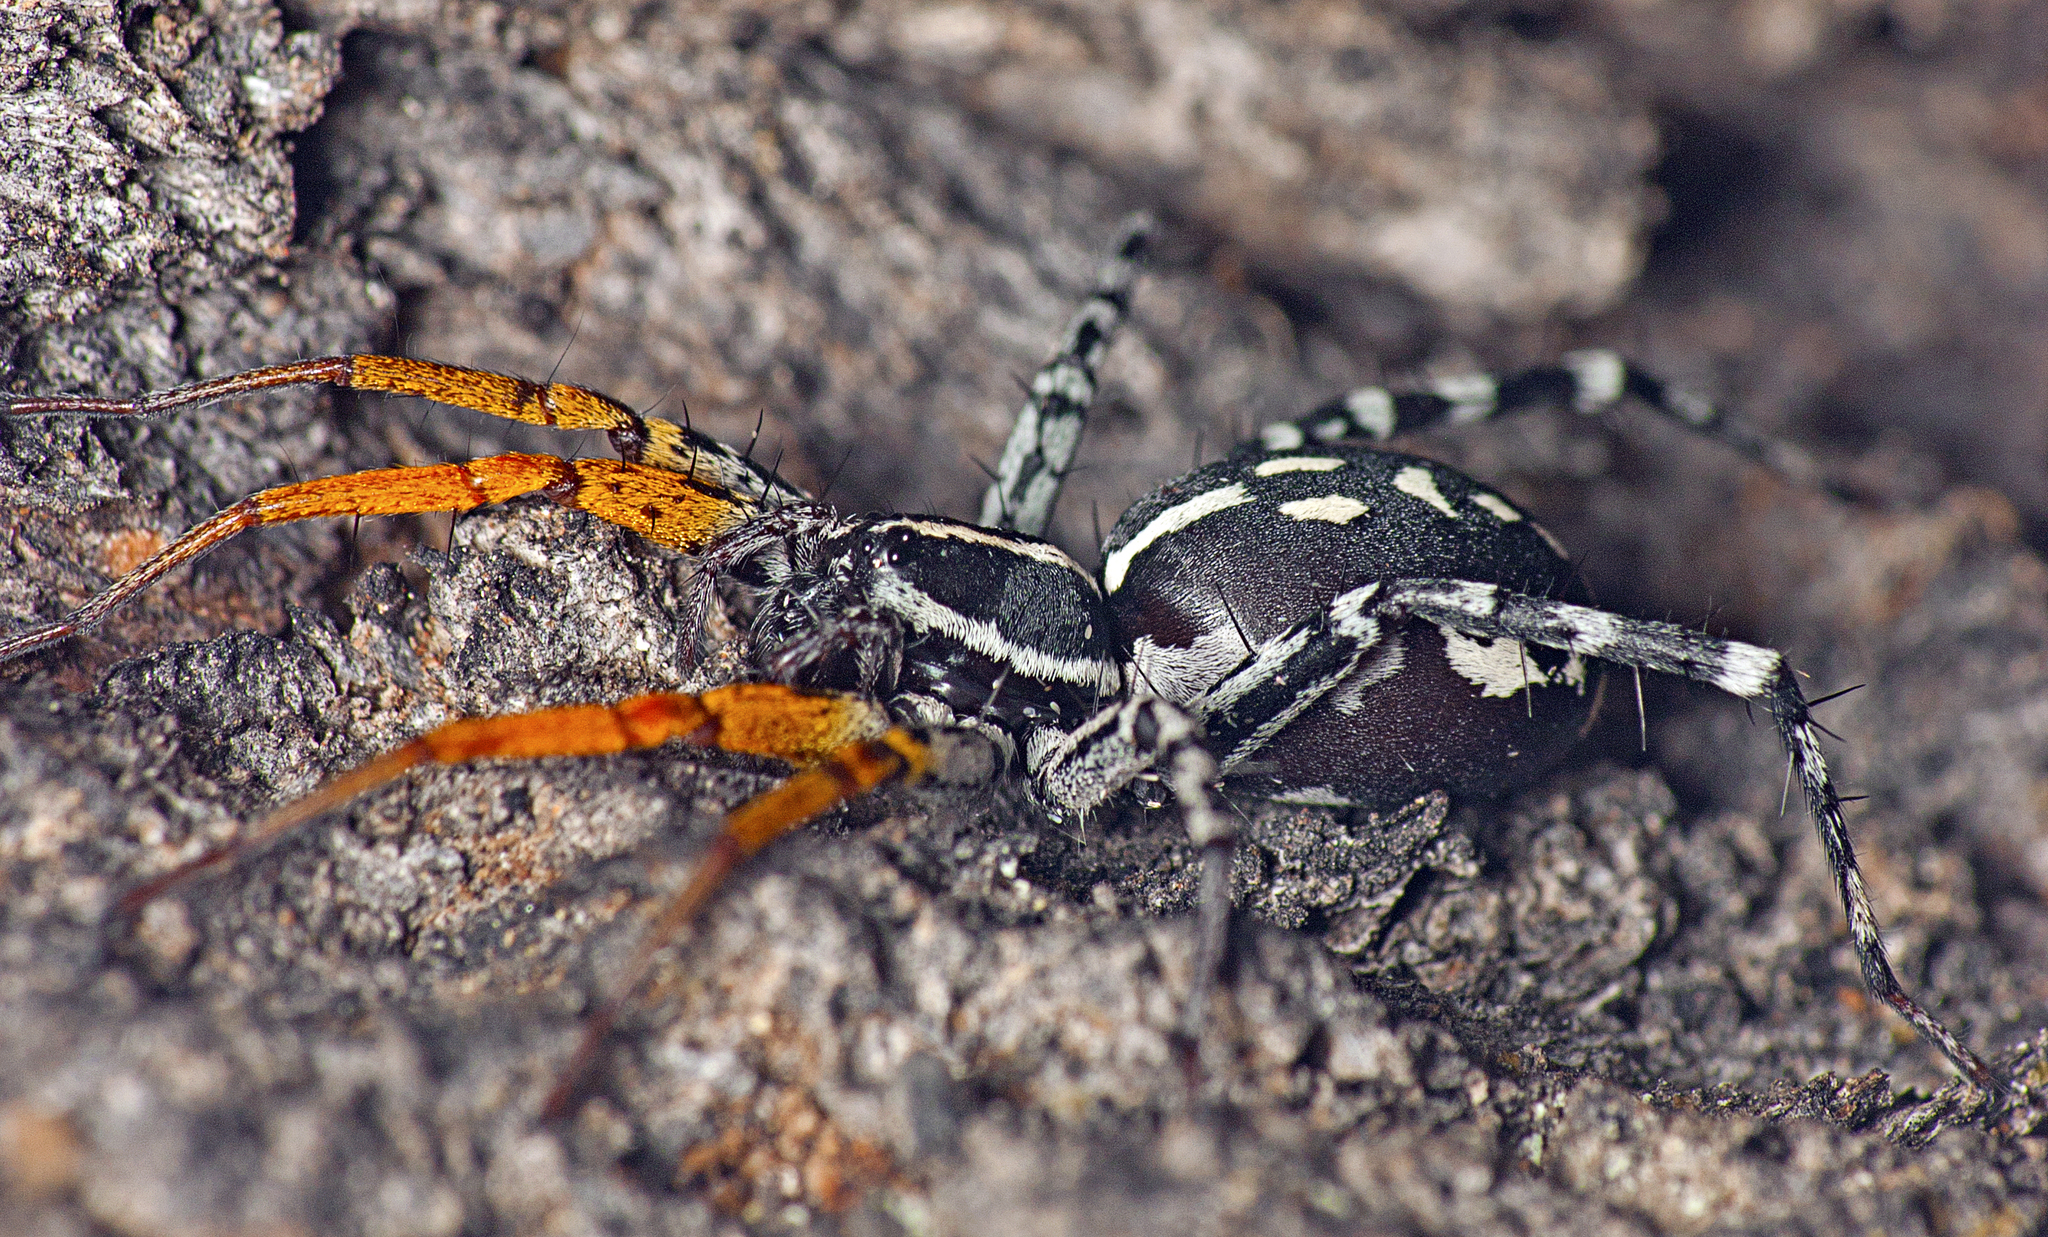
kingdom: Animalia
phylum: Arthropoda
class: Arachnida
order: Araneae
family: Corinnidae
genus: Nyssus
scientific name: Nyssus coloripes
